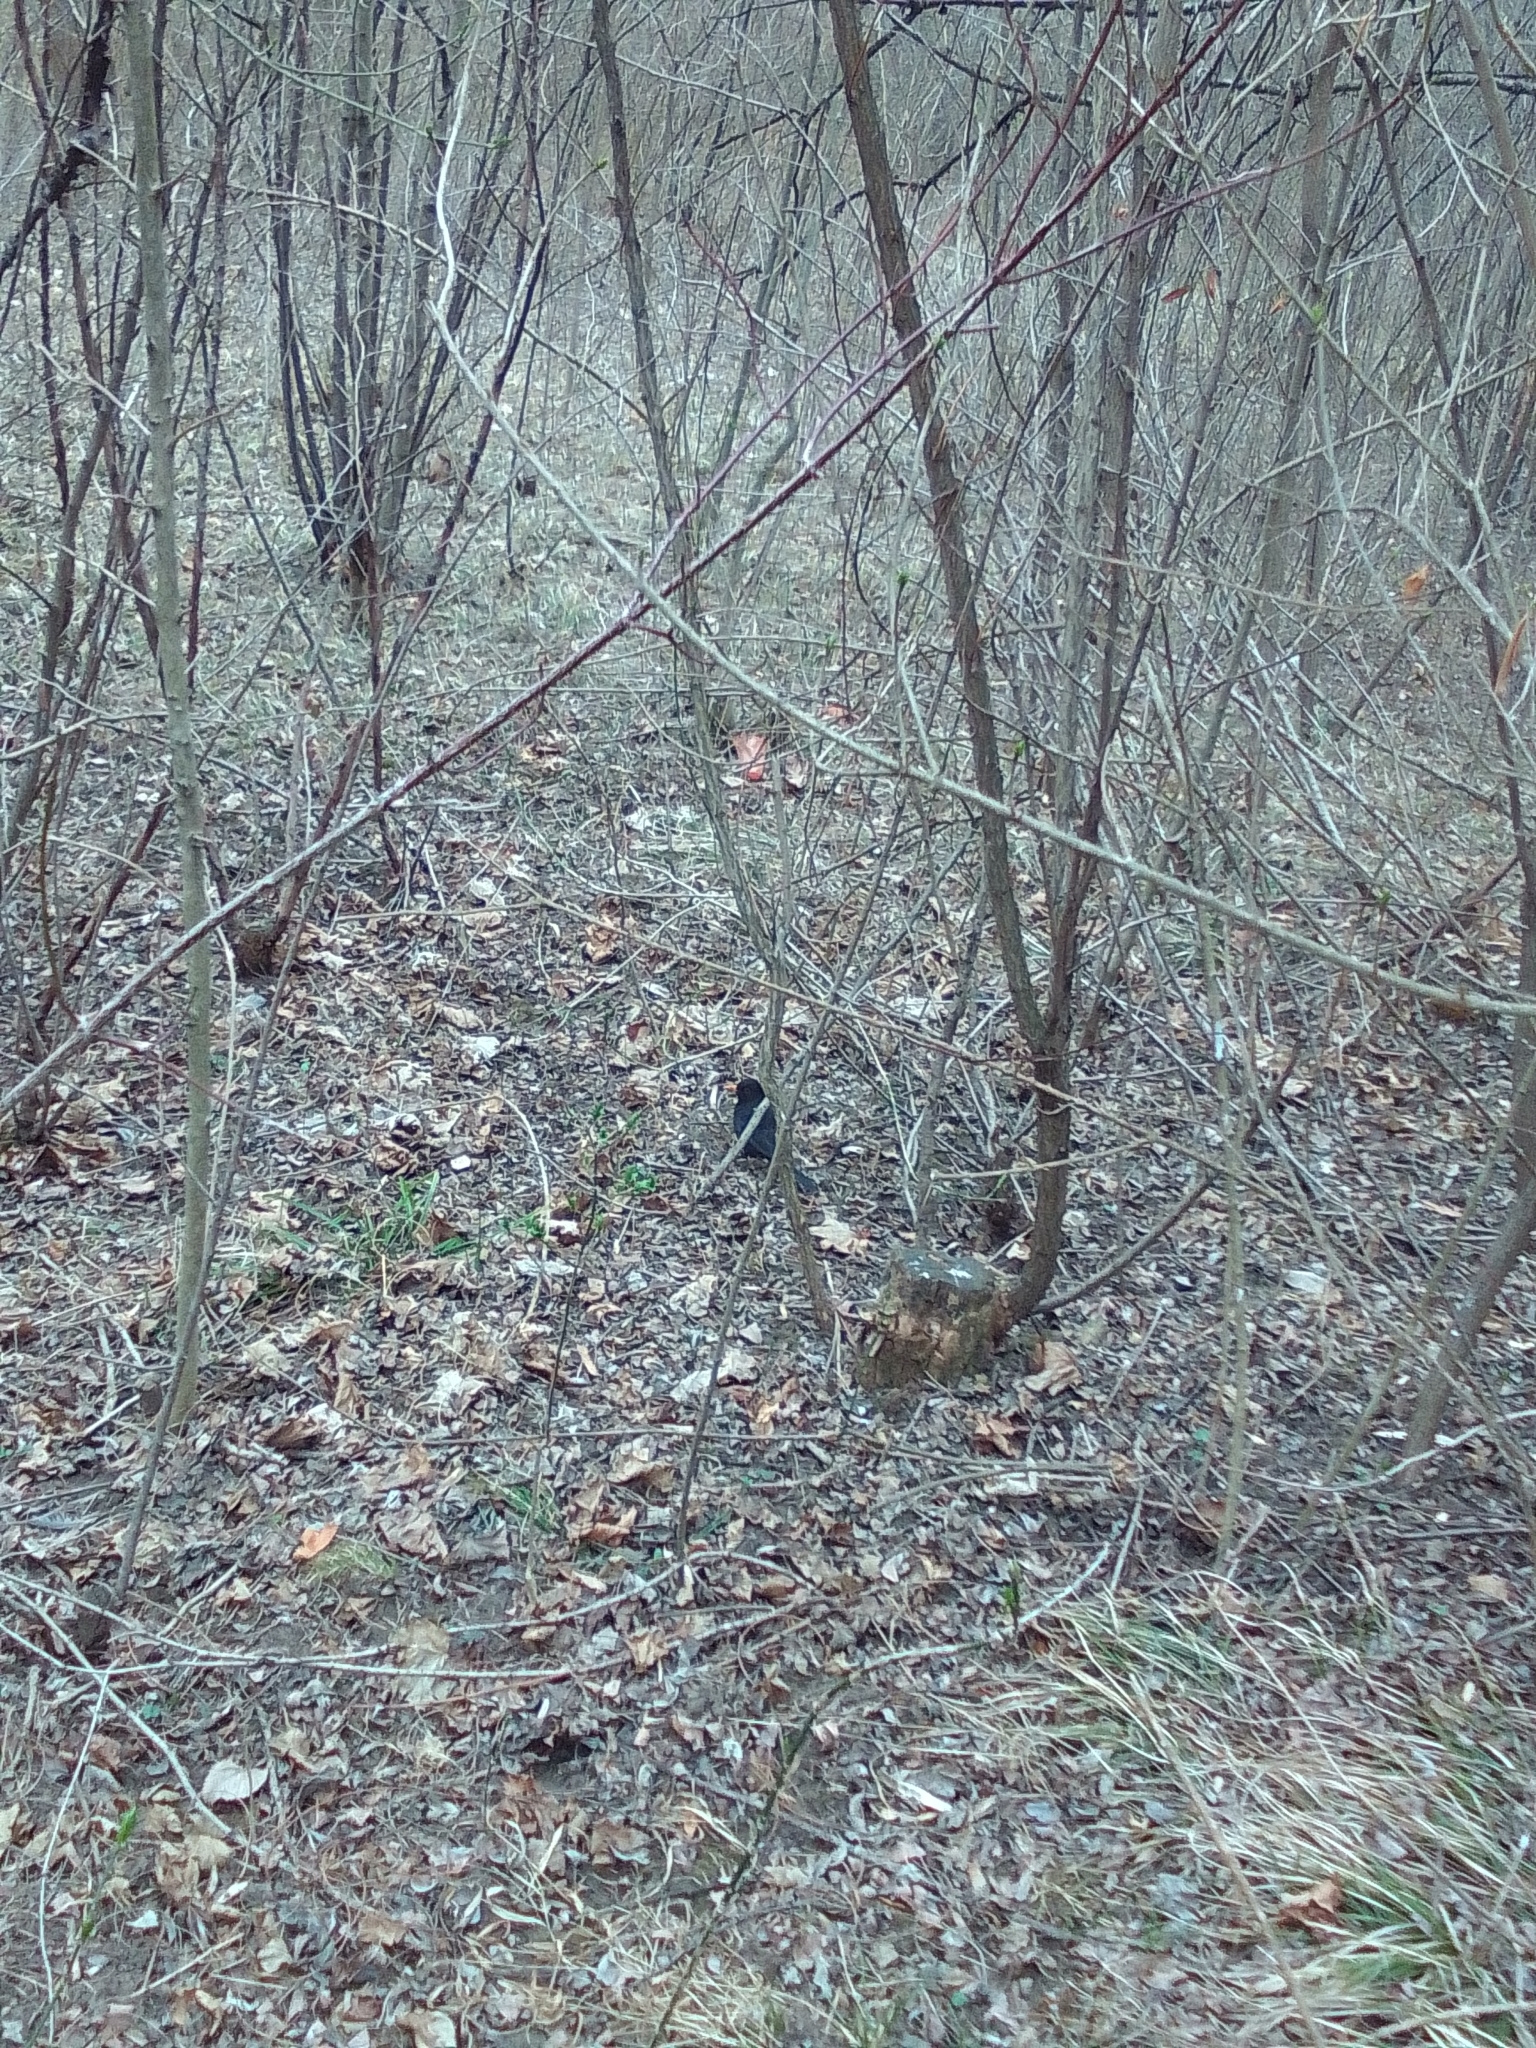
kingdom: Animalia
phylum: Chordata
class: Aves
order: Passeriformes
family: Turdidae
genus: Turdus
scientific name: Turdus merula
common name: Common blackbird
